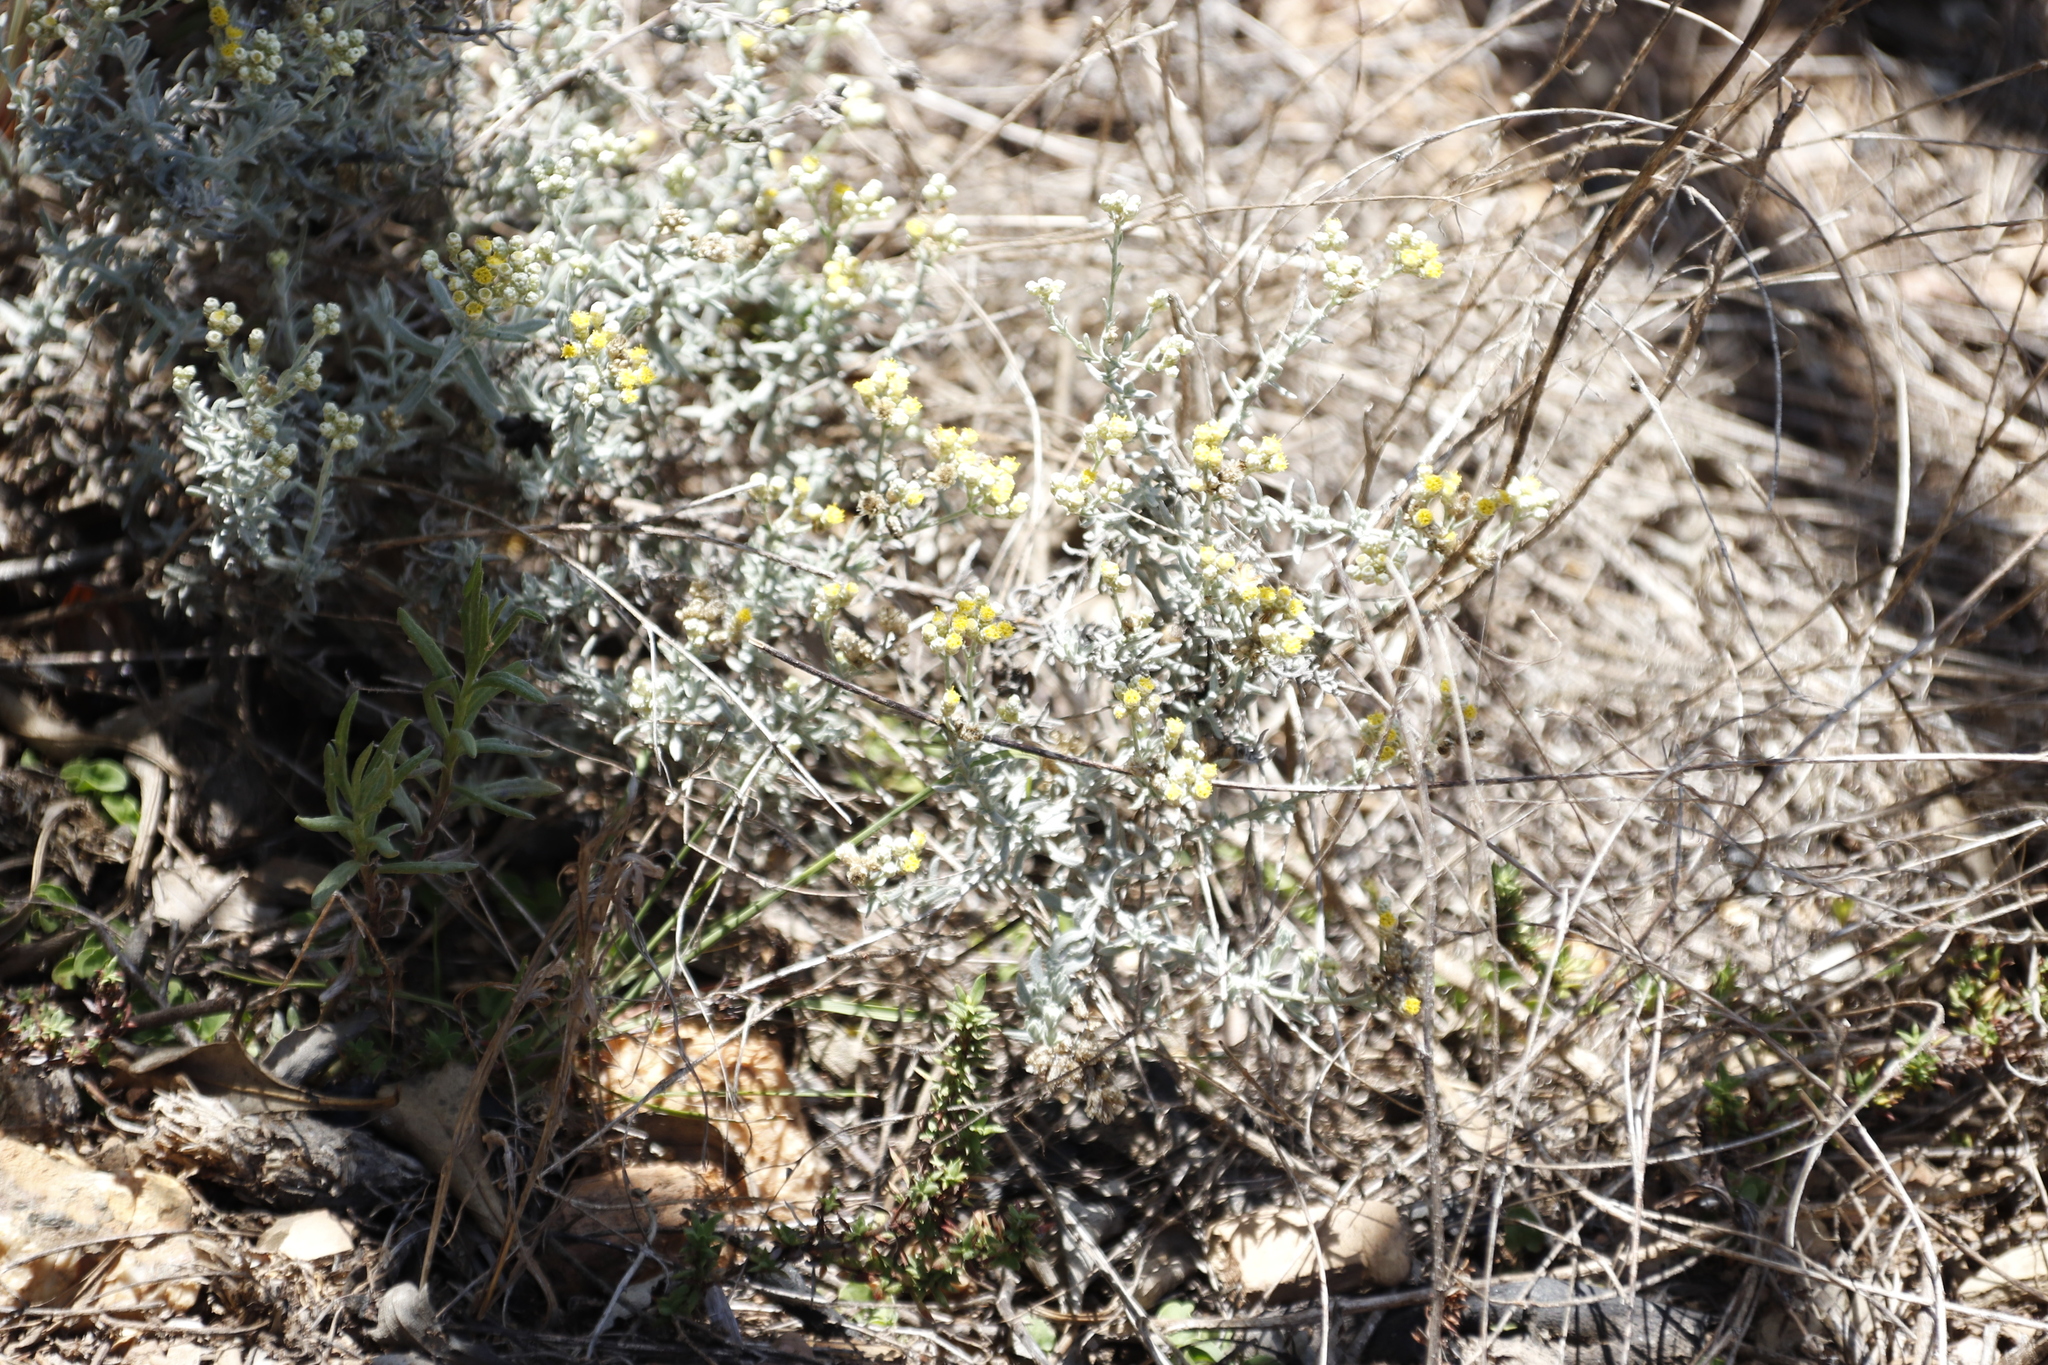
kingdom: Plantae
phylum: Tracheophyta
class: Magnoliopsida
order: Asterales
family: Asteraceae
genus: Helichrysum
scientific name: Helichrysum rosum
